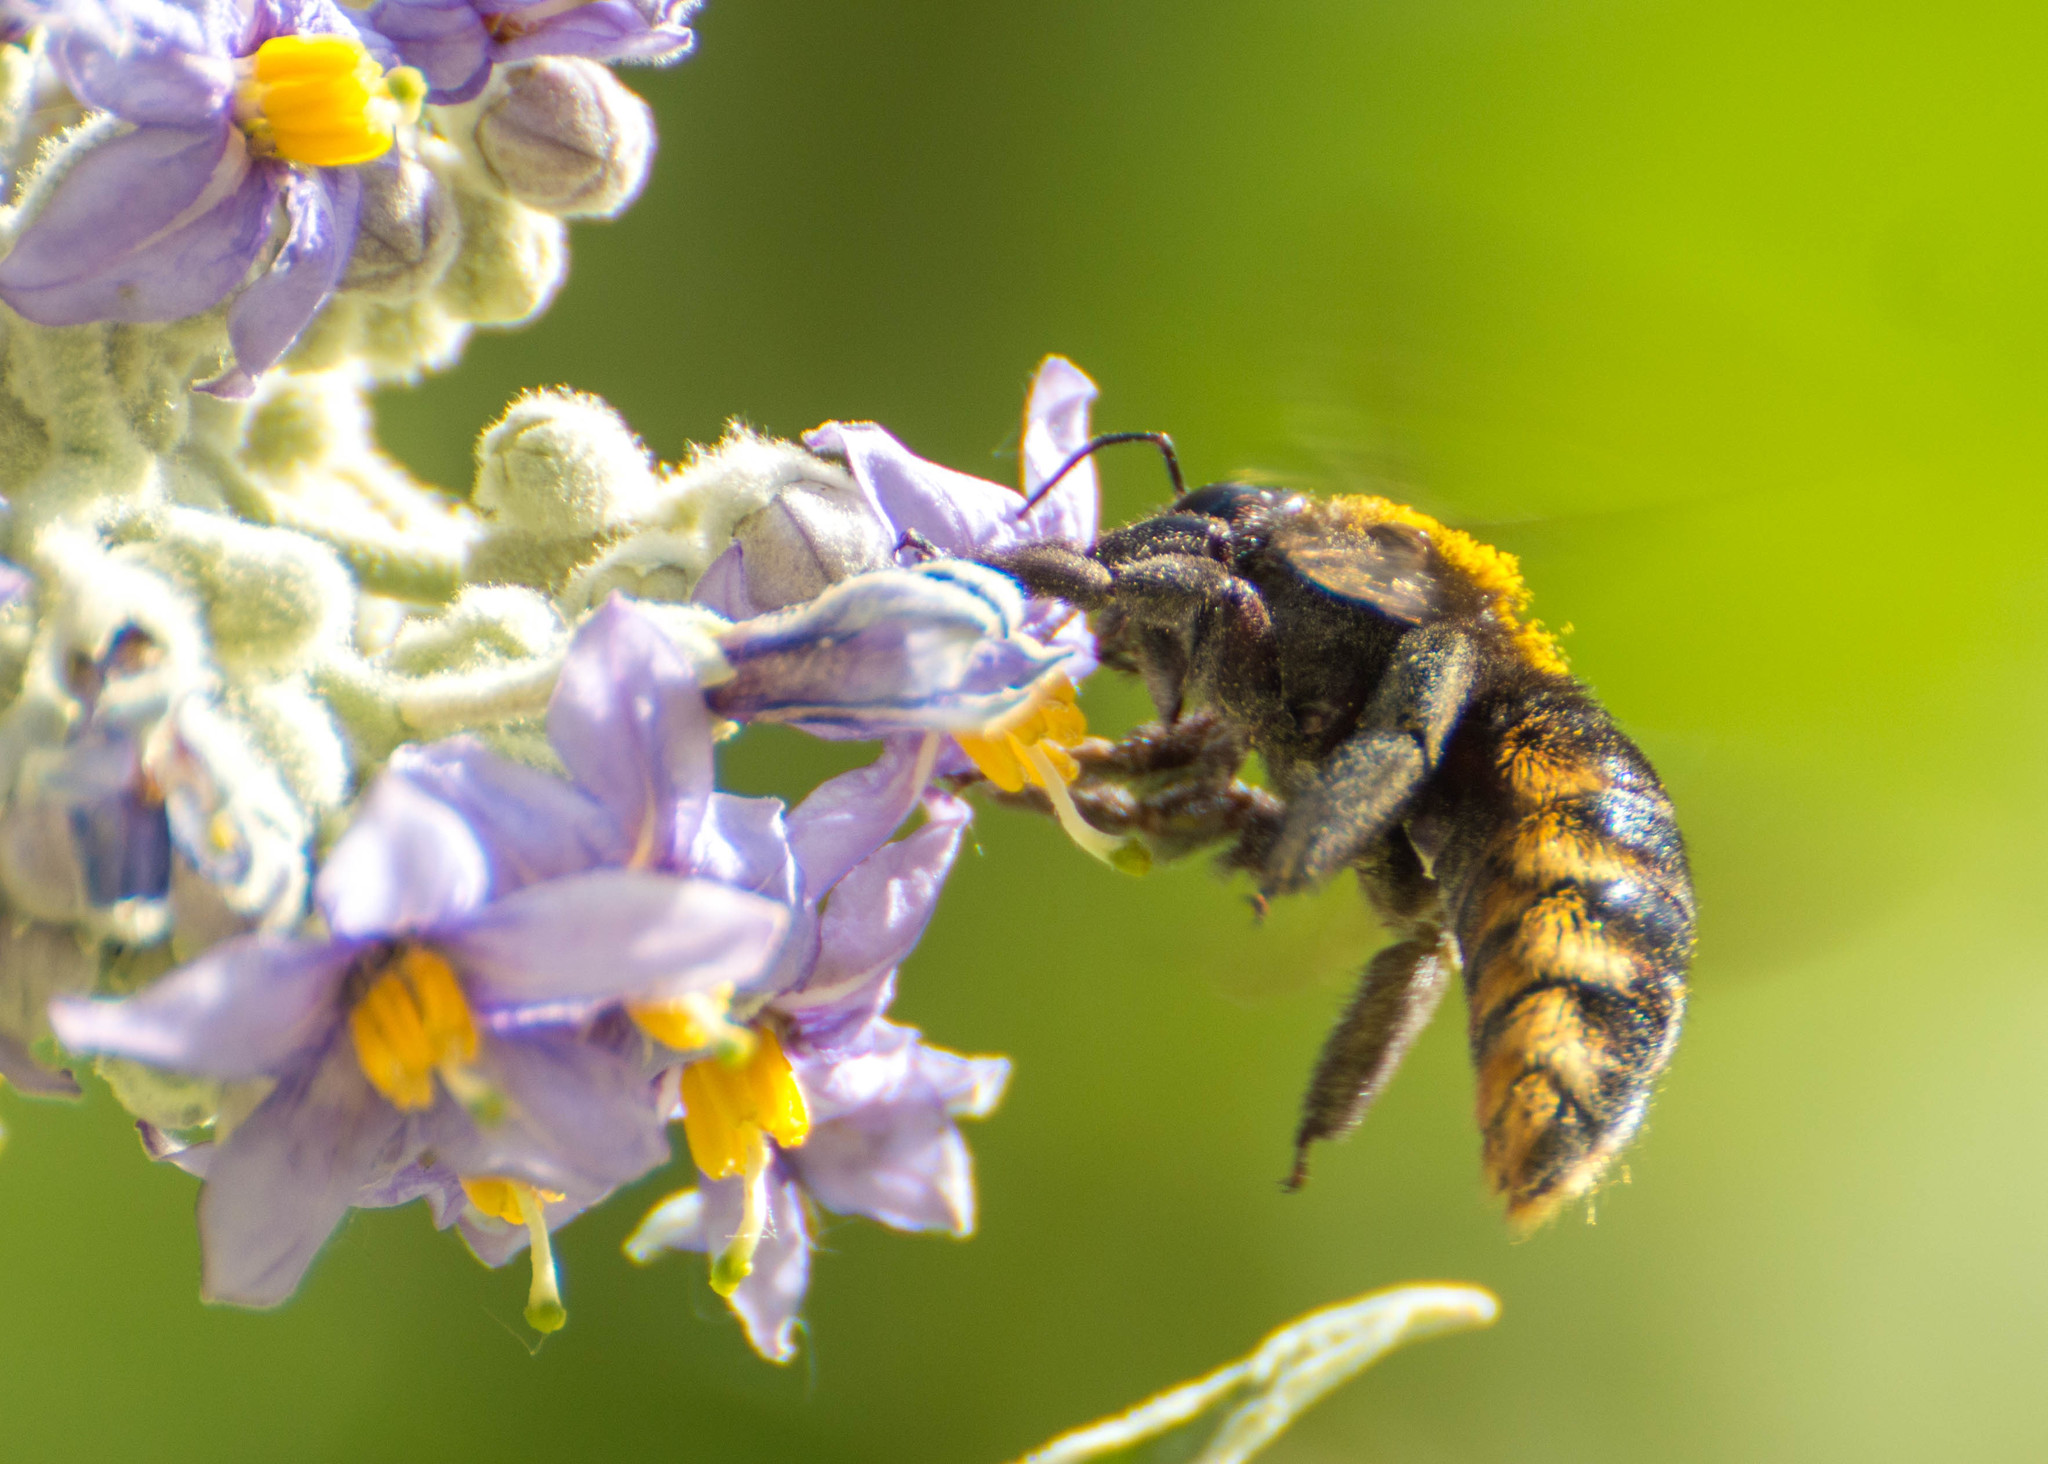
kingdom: Animalia
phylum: Arthropoda
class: Insecta
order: Hymenoptera
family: Apidae
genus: Xylocopa
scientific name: Xylocopa augusti
